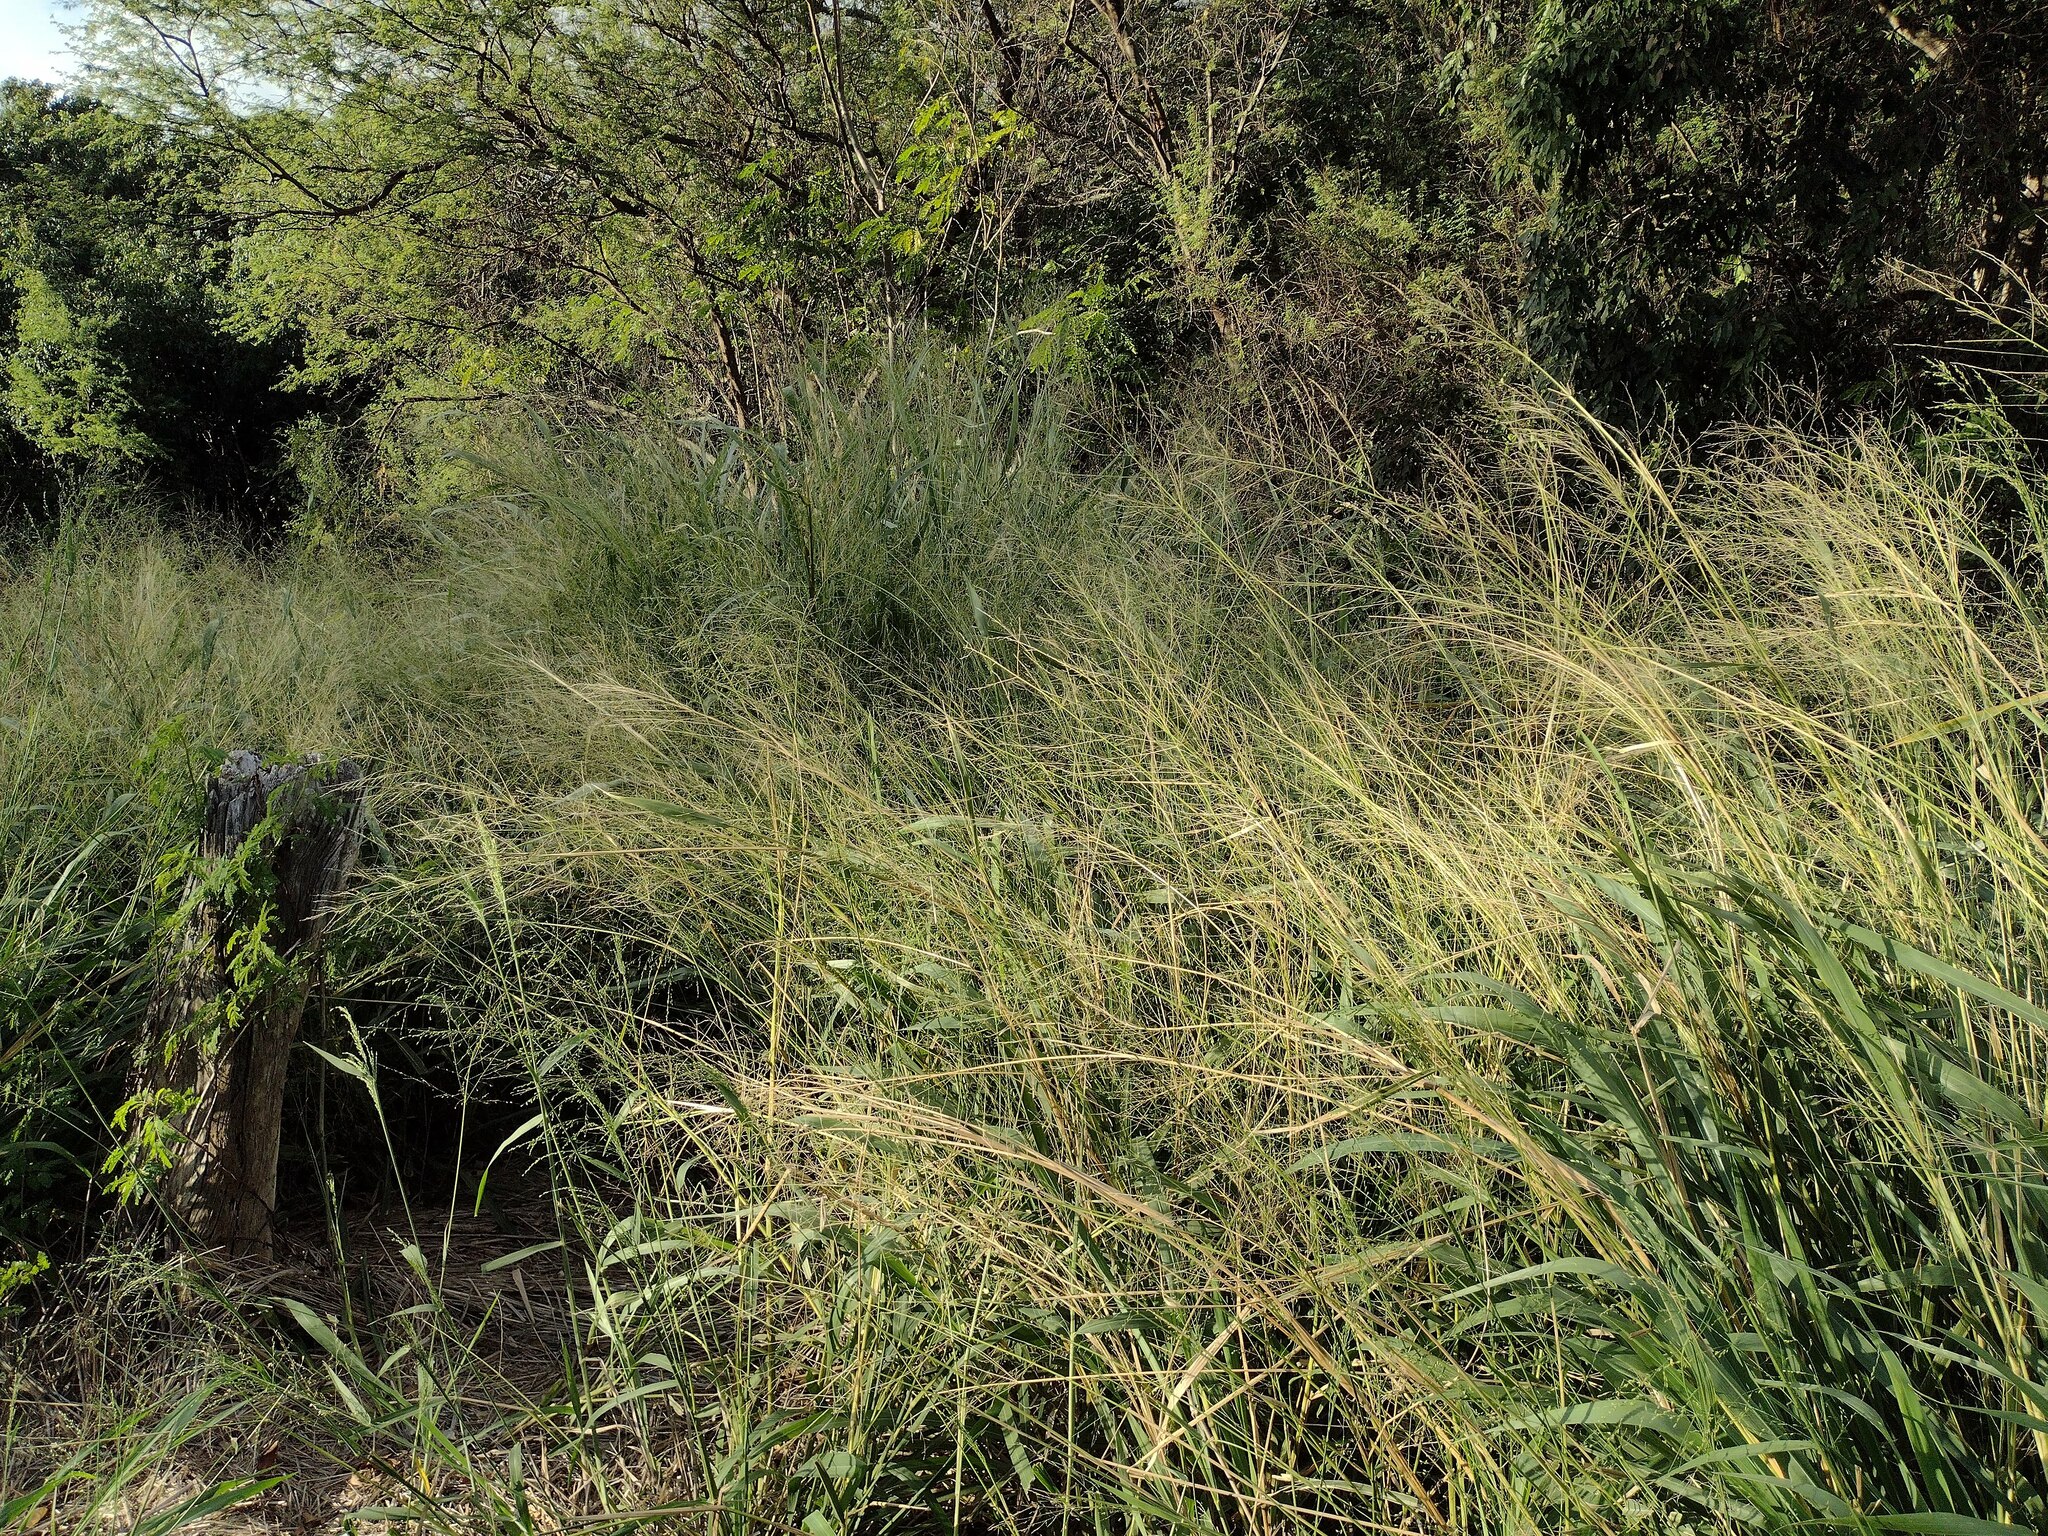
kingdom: Plantae
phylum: Tracheophyta
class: Liliopsida
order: Poales
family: Poaceae
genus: Megathyrsus
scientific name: Megathyrsus maximus
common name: Guineagrass
